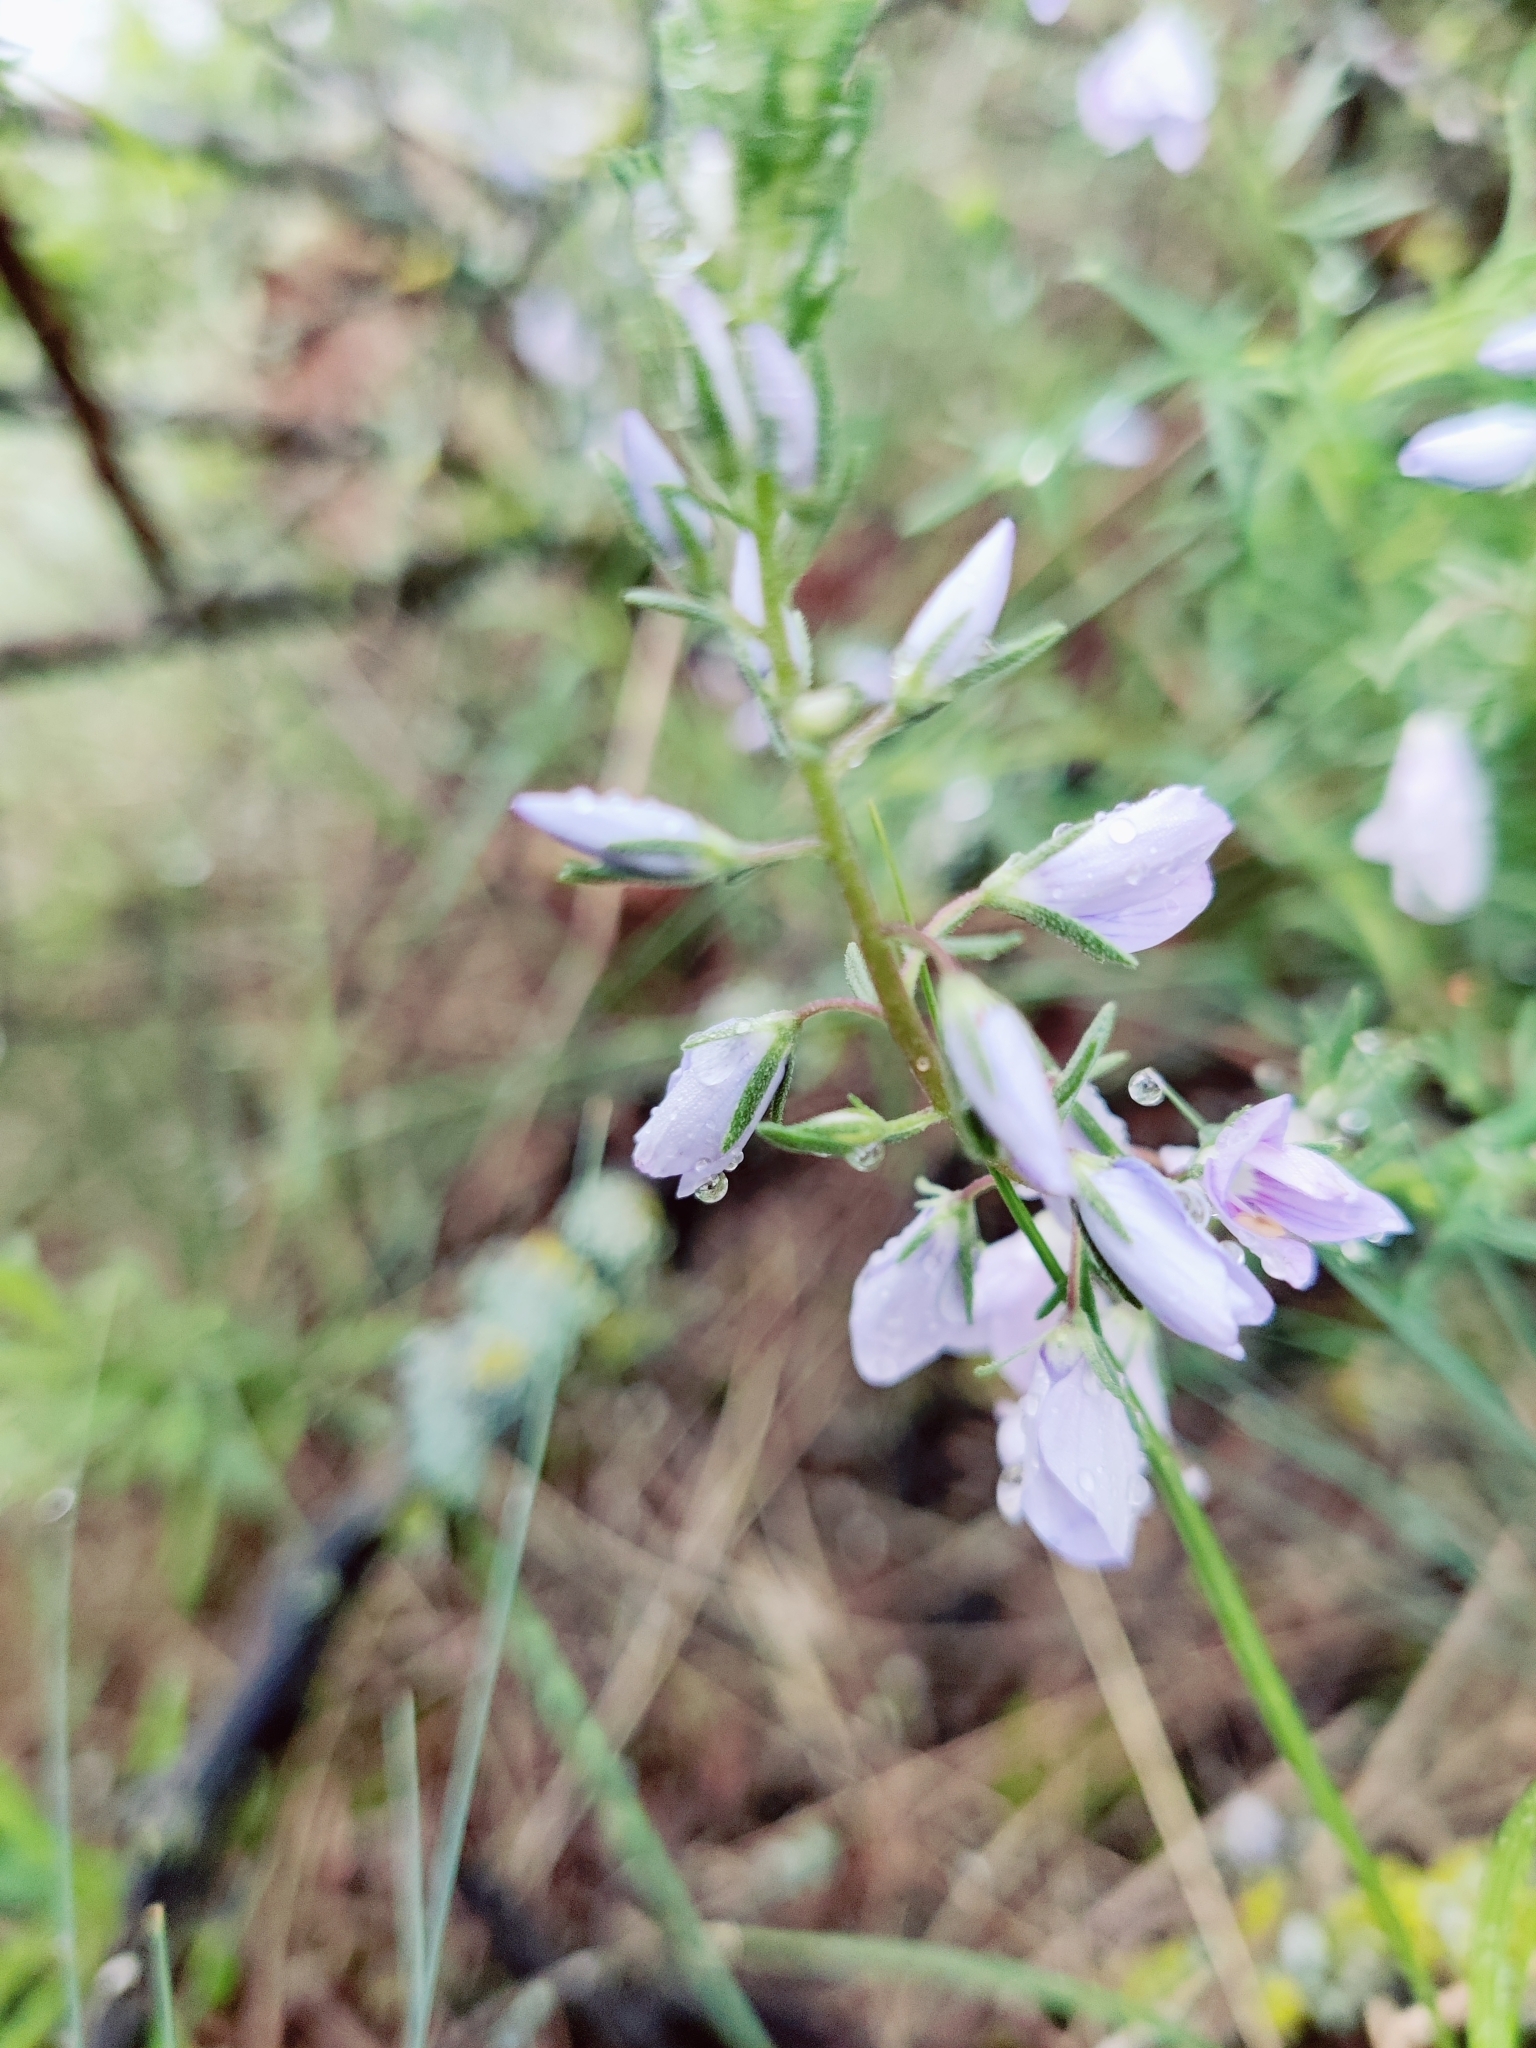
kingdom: Plantae
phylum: Tracheophyta
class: Magnoliopsida
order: Lamiales
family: Plantaginaceae
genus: Veronica
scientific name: Veronica multifida
